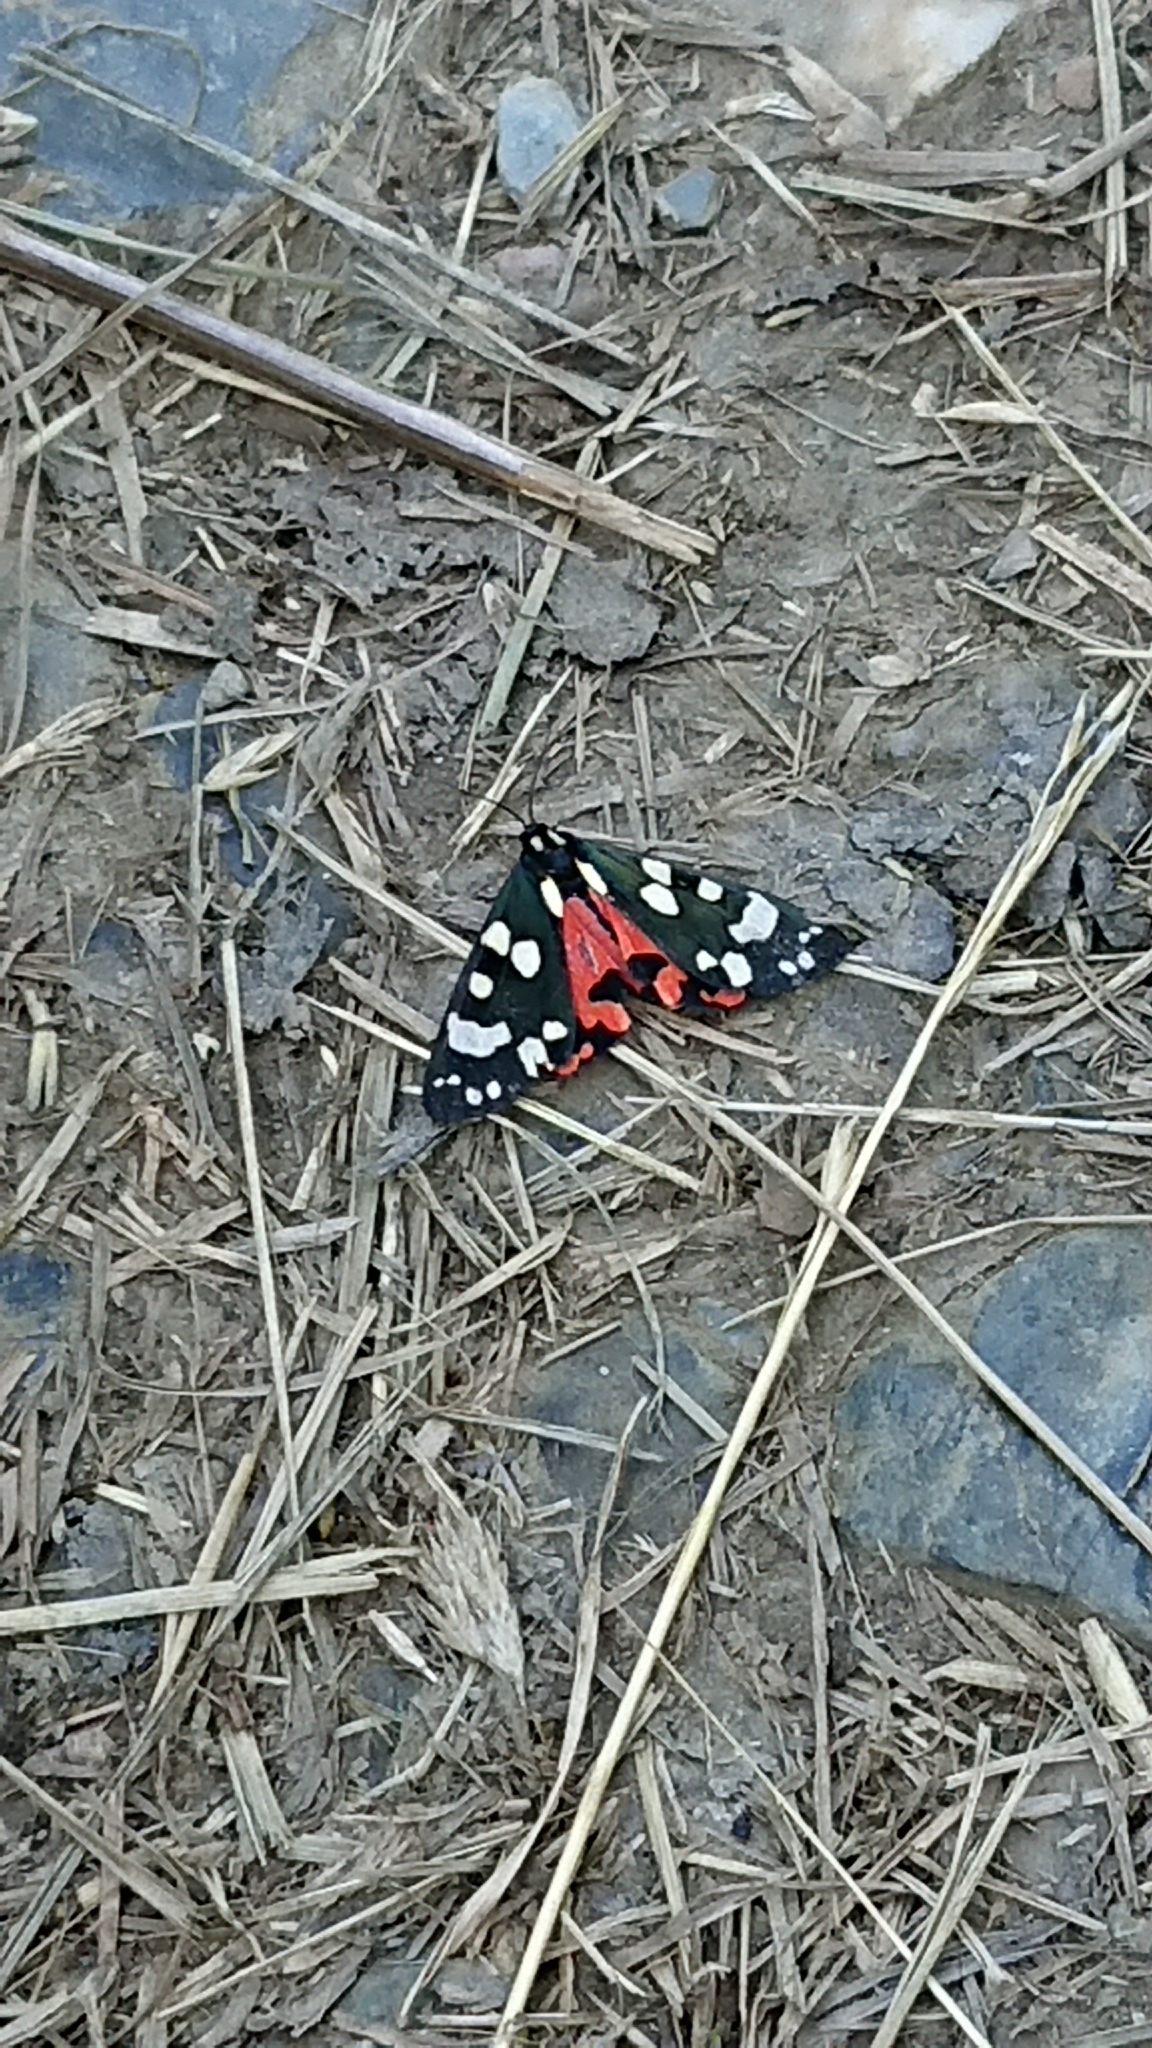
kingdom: Animalia
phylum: Arthropoda
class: Insecta
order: Lepidoptera
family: Erebidae
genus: Callimorpha
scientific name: Callimorpha dominula
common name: Scarlet tiger
